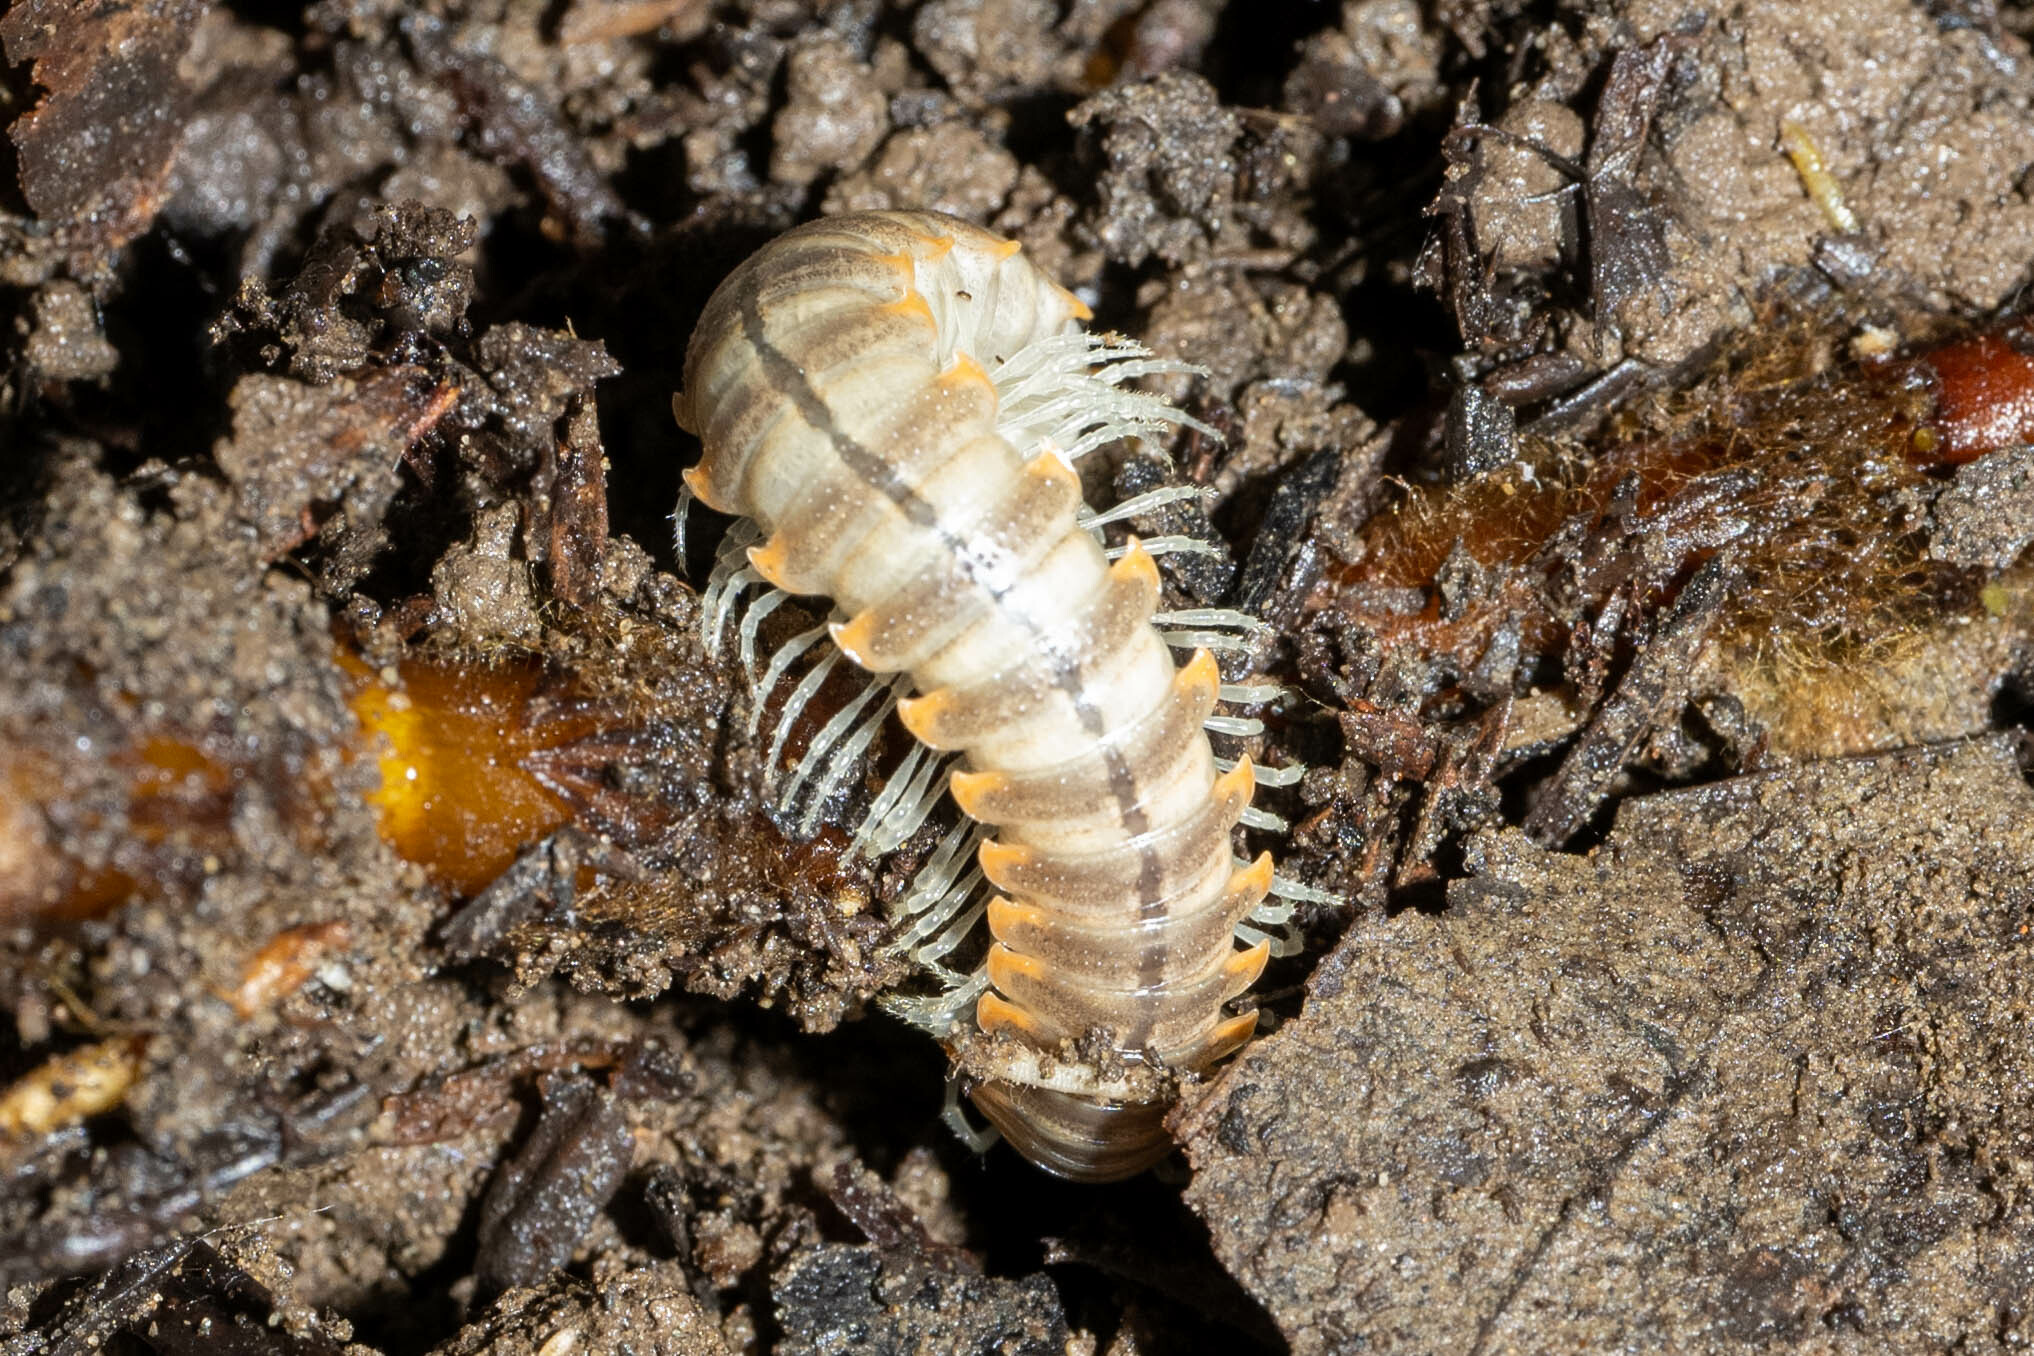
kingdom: Animalia
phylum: Arthropoda
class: Diplopoda
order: Polydesmida
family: Xystodesmidae
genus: Xystocheir
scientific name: Xystocheir dissecta
